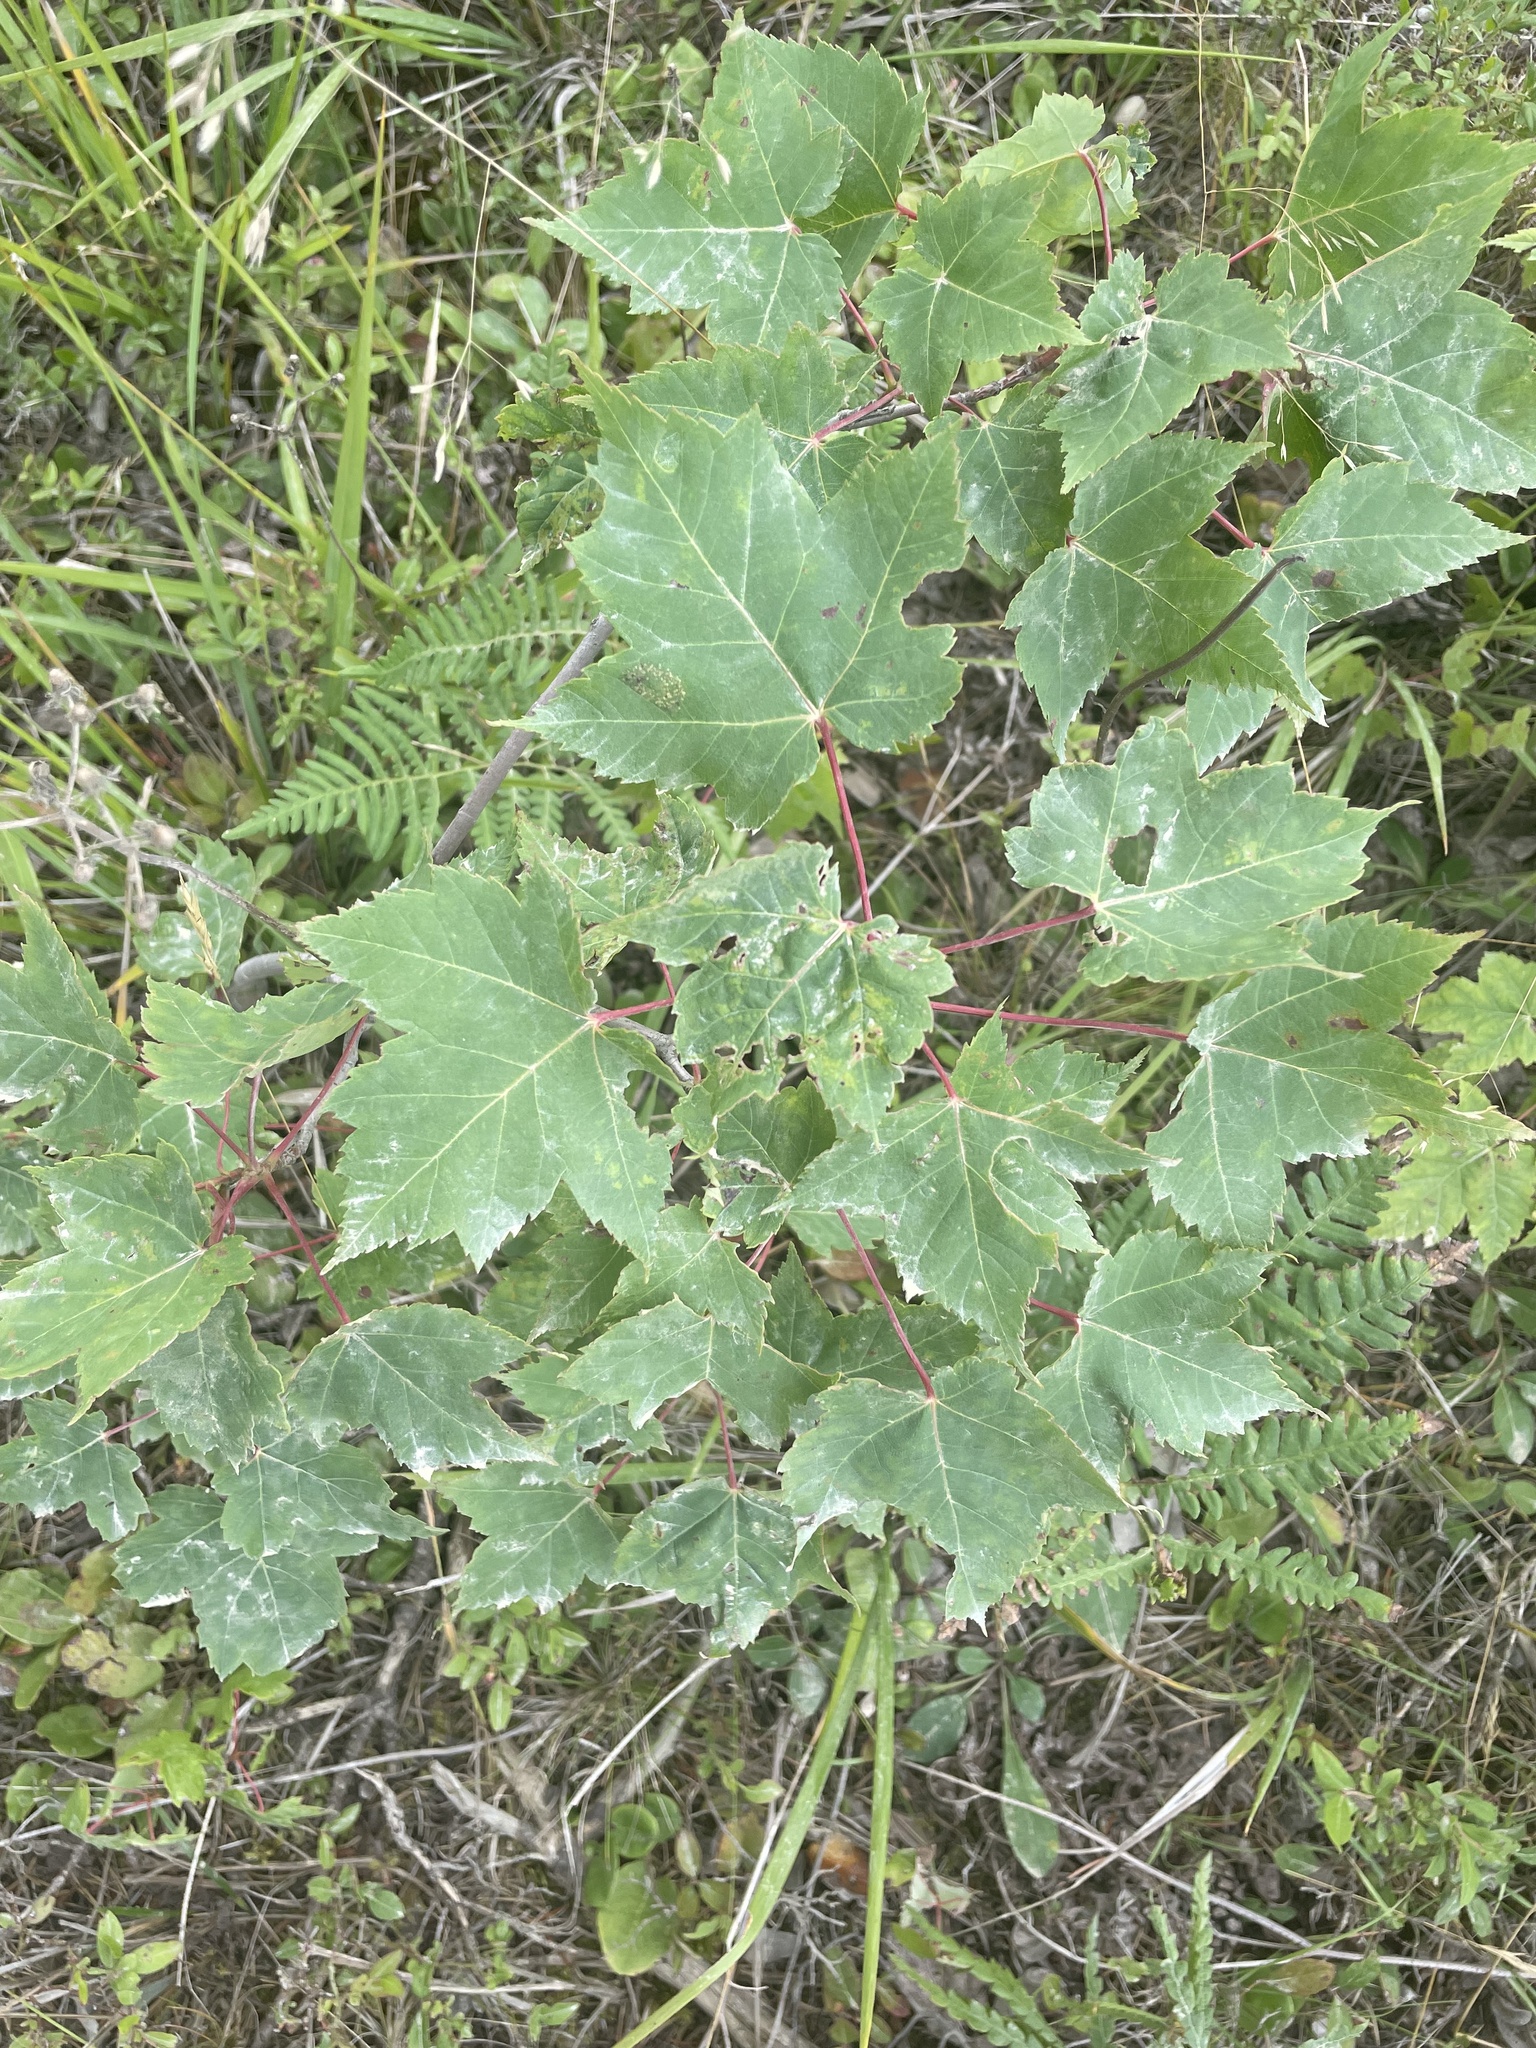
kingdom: Plantae
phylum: Tracheophyta
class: Magnoliopsida
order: Sapindales
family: Sapindaceae
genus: Acer
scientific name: Acer rubrum
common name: Red maple
